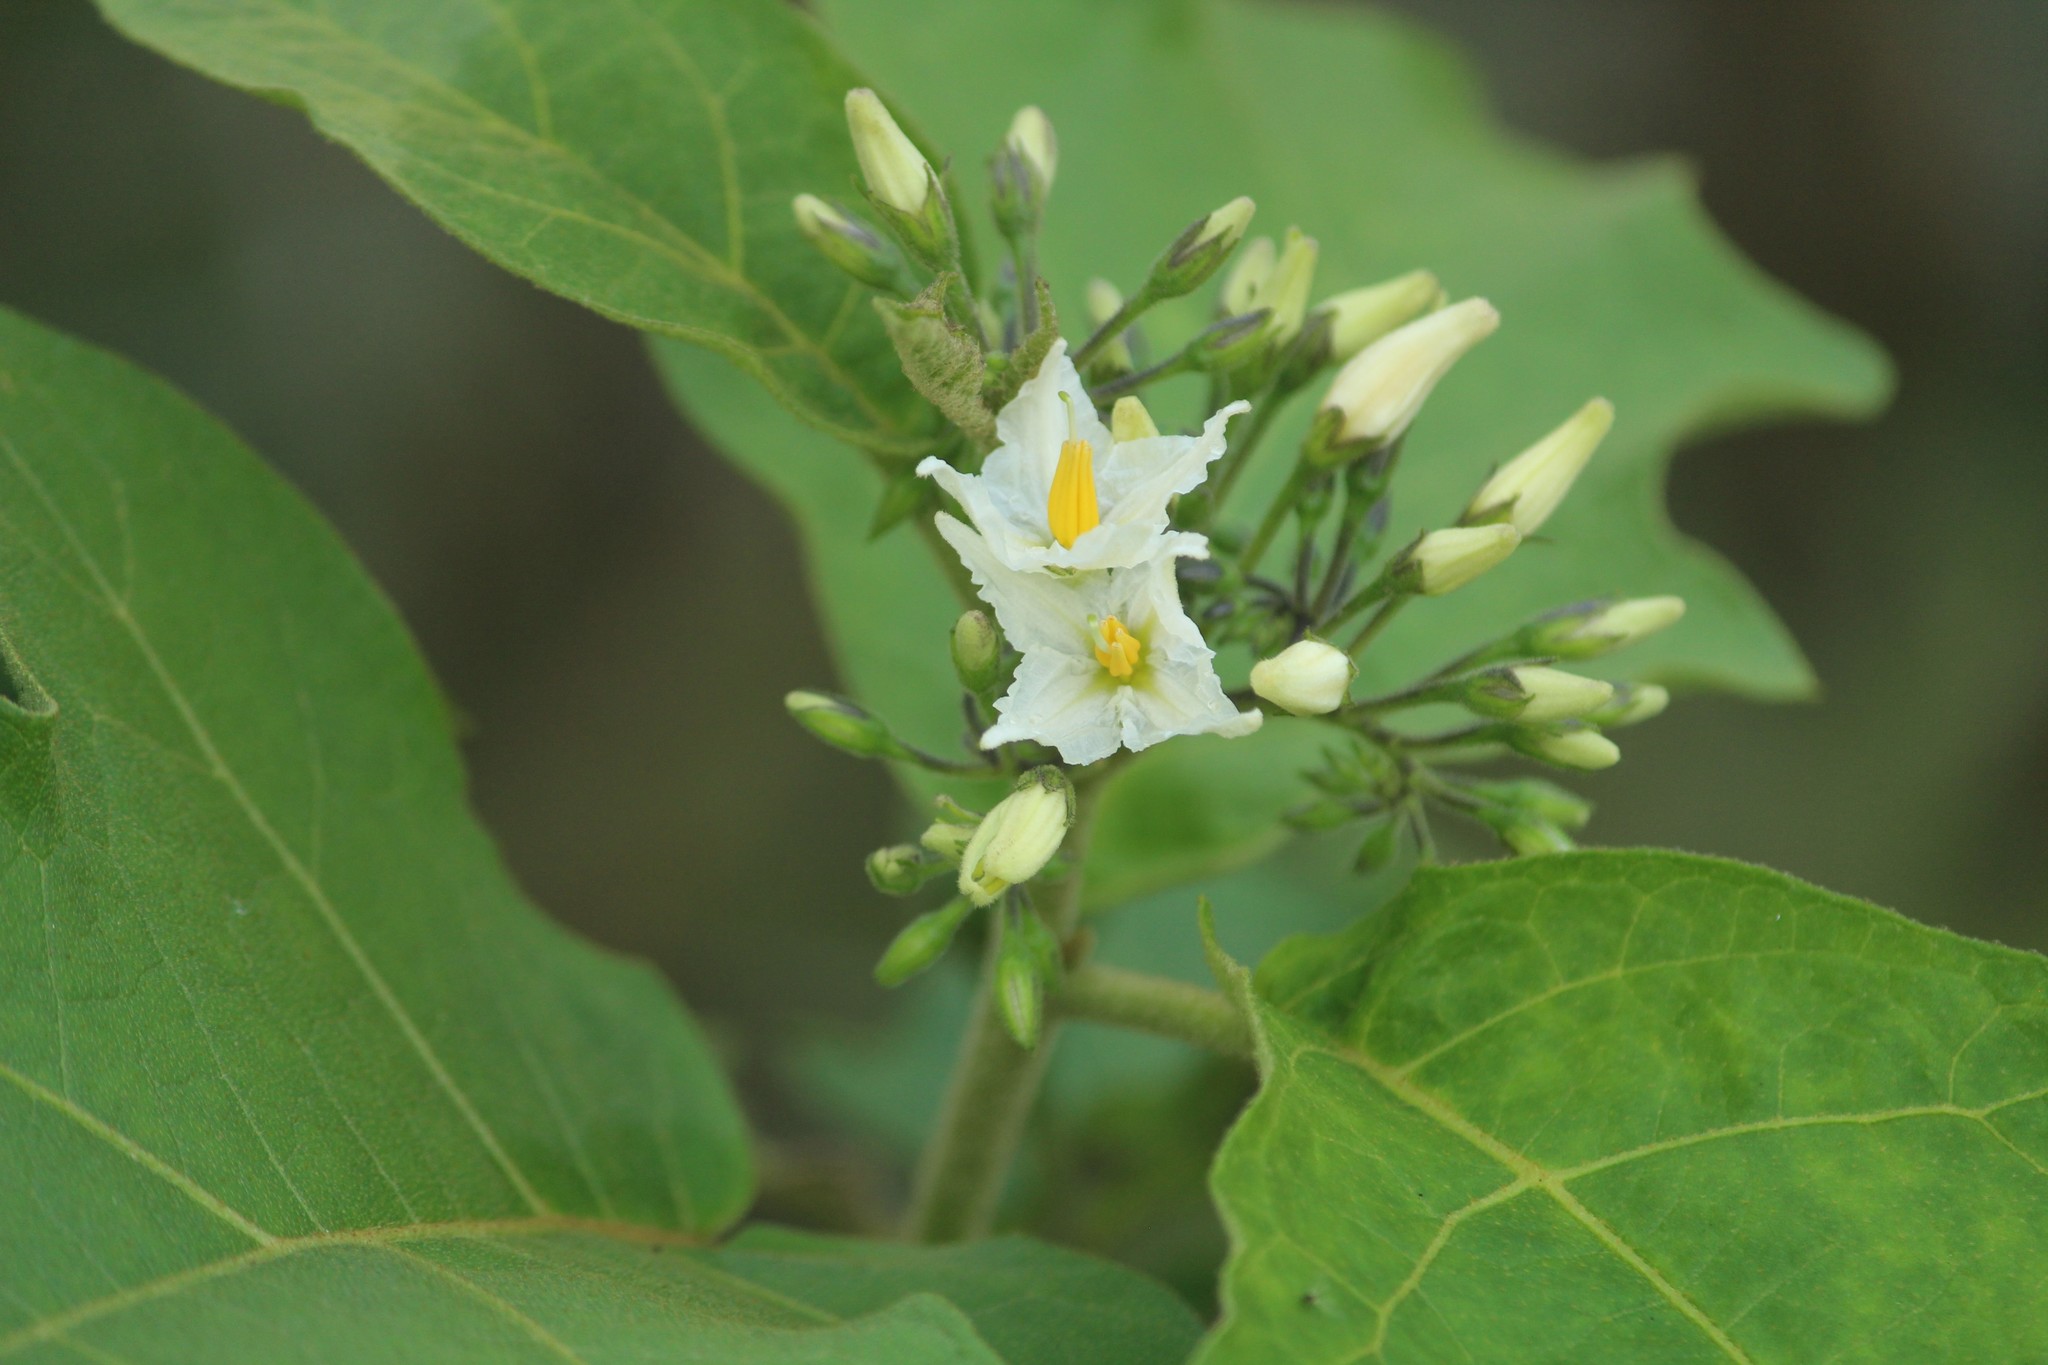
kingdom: Plantae
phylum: Tracheophyta
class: Magnoliopsida
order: Solanales
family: Solanaceae
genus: Solanum
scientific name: Solanum torvum
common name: Turkey berry
